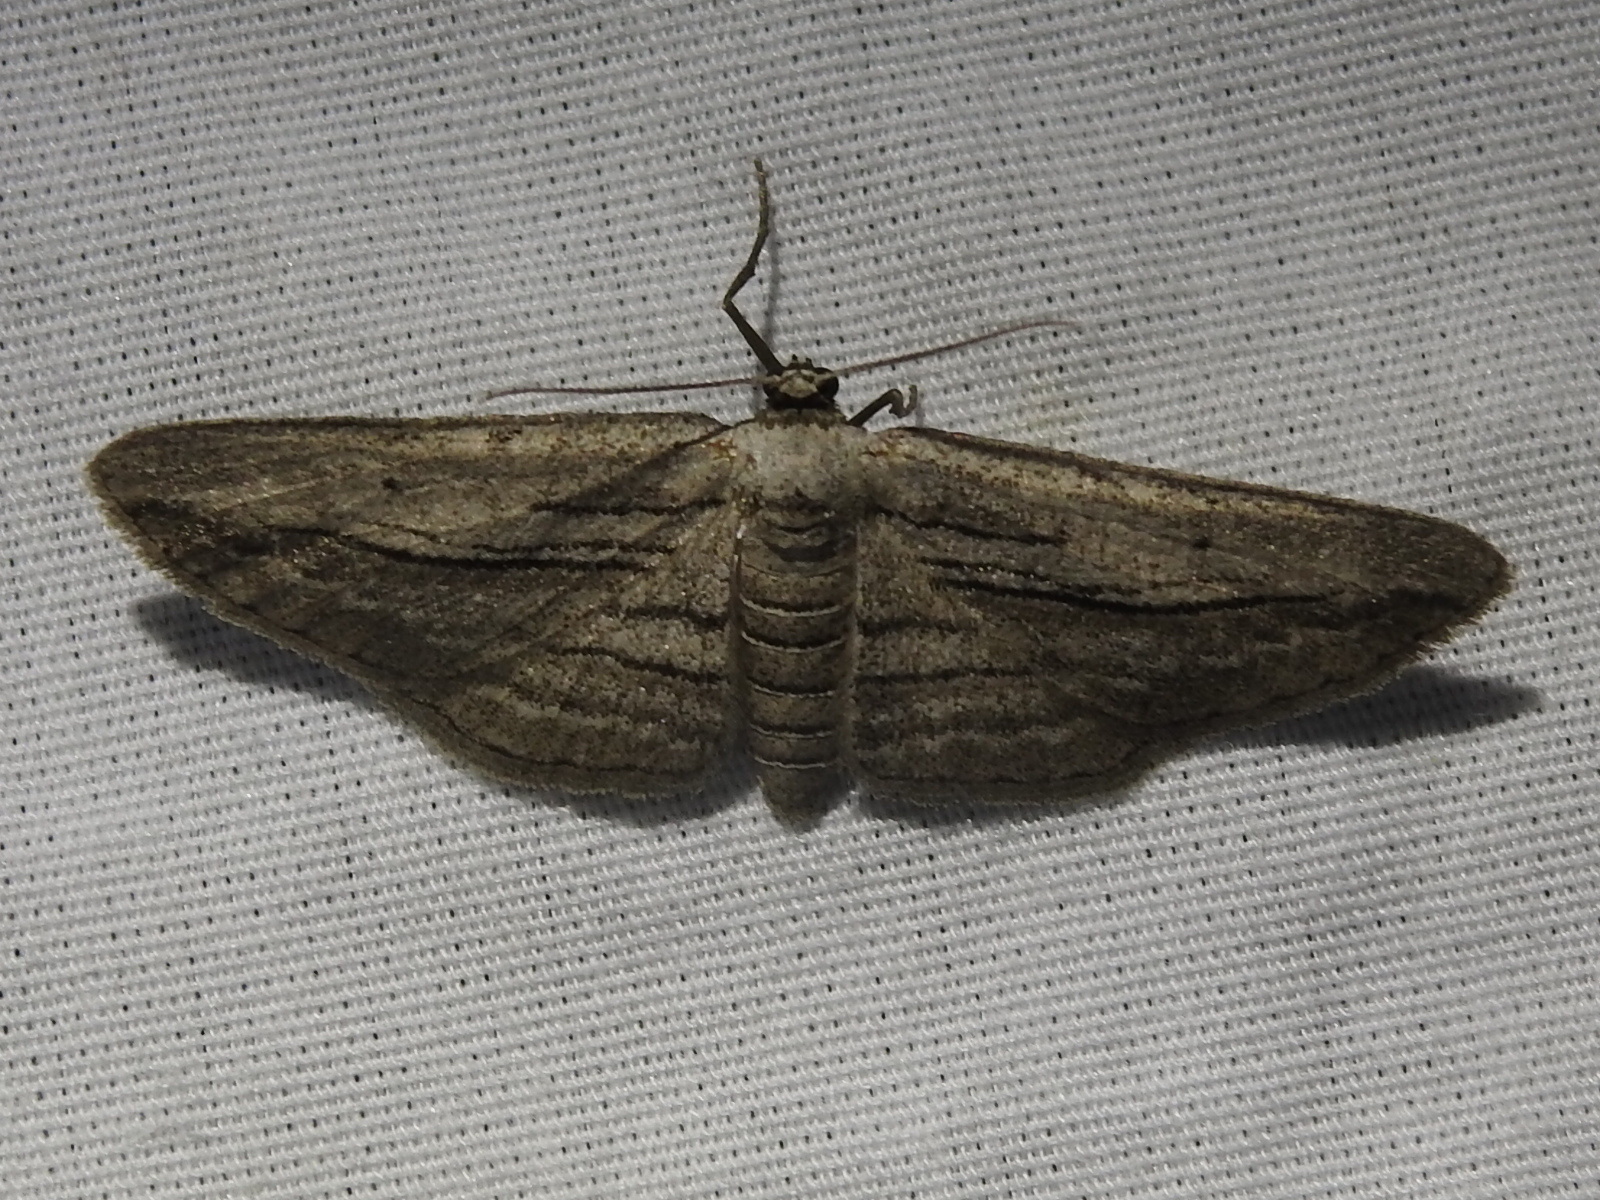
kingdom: Animalia
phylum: Arthropoda
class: Insecta
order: Lepidoptera
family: Geometridae
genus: Glena
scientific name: Glena quinquelinearia
